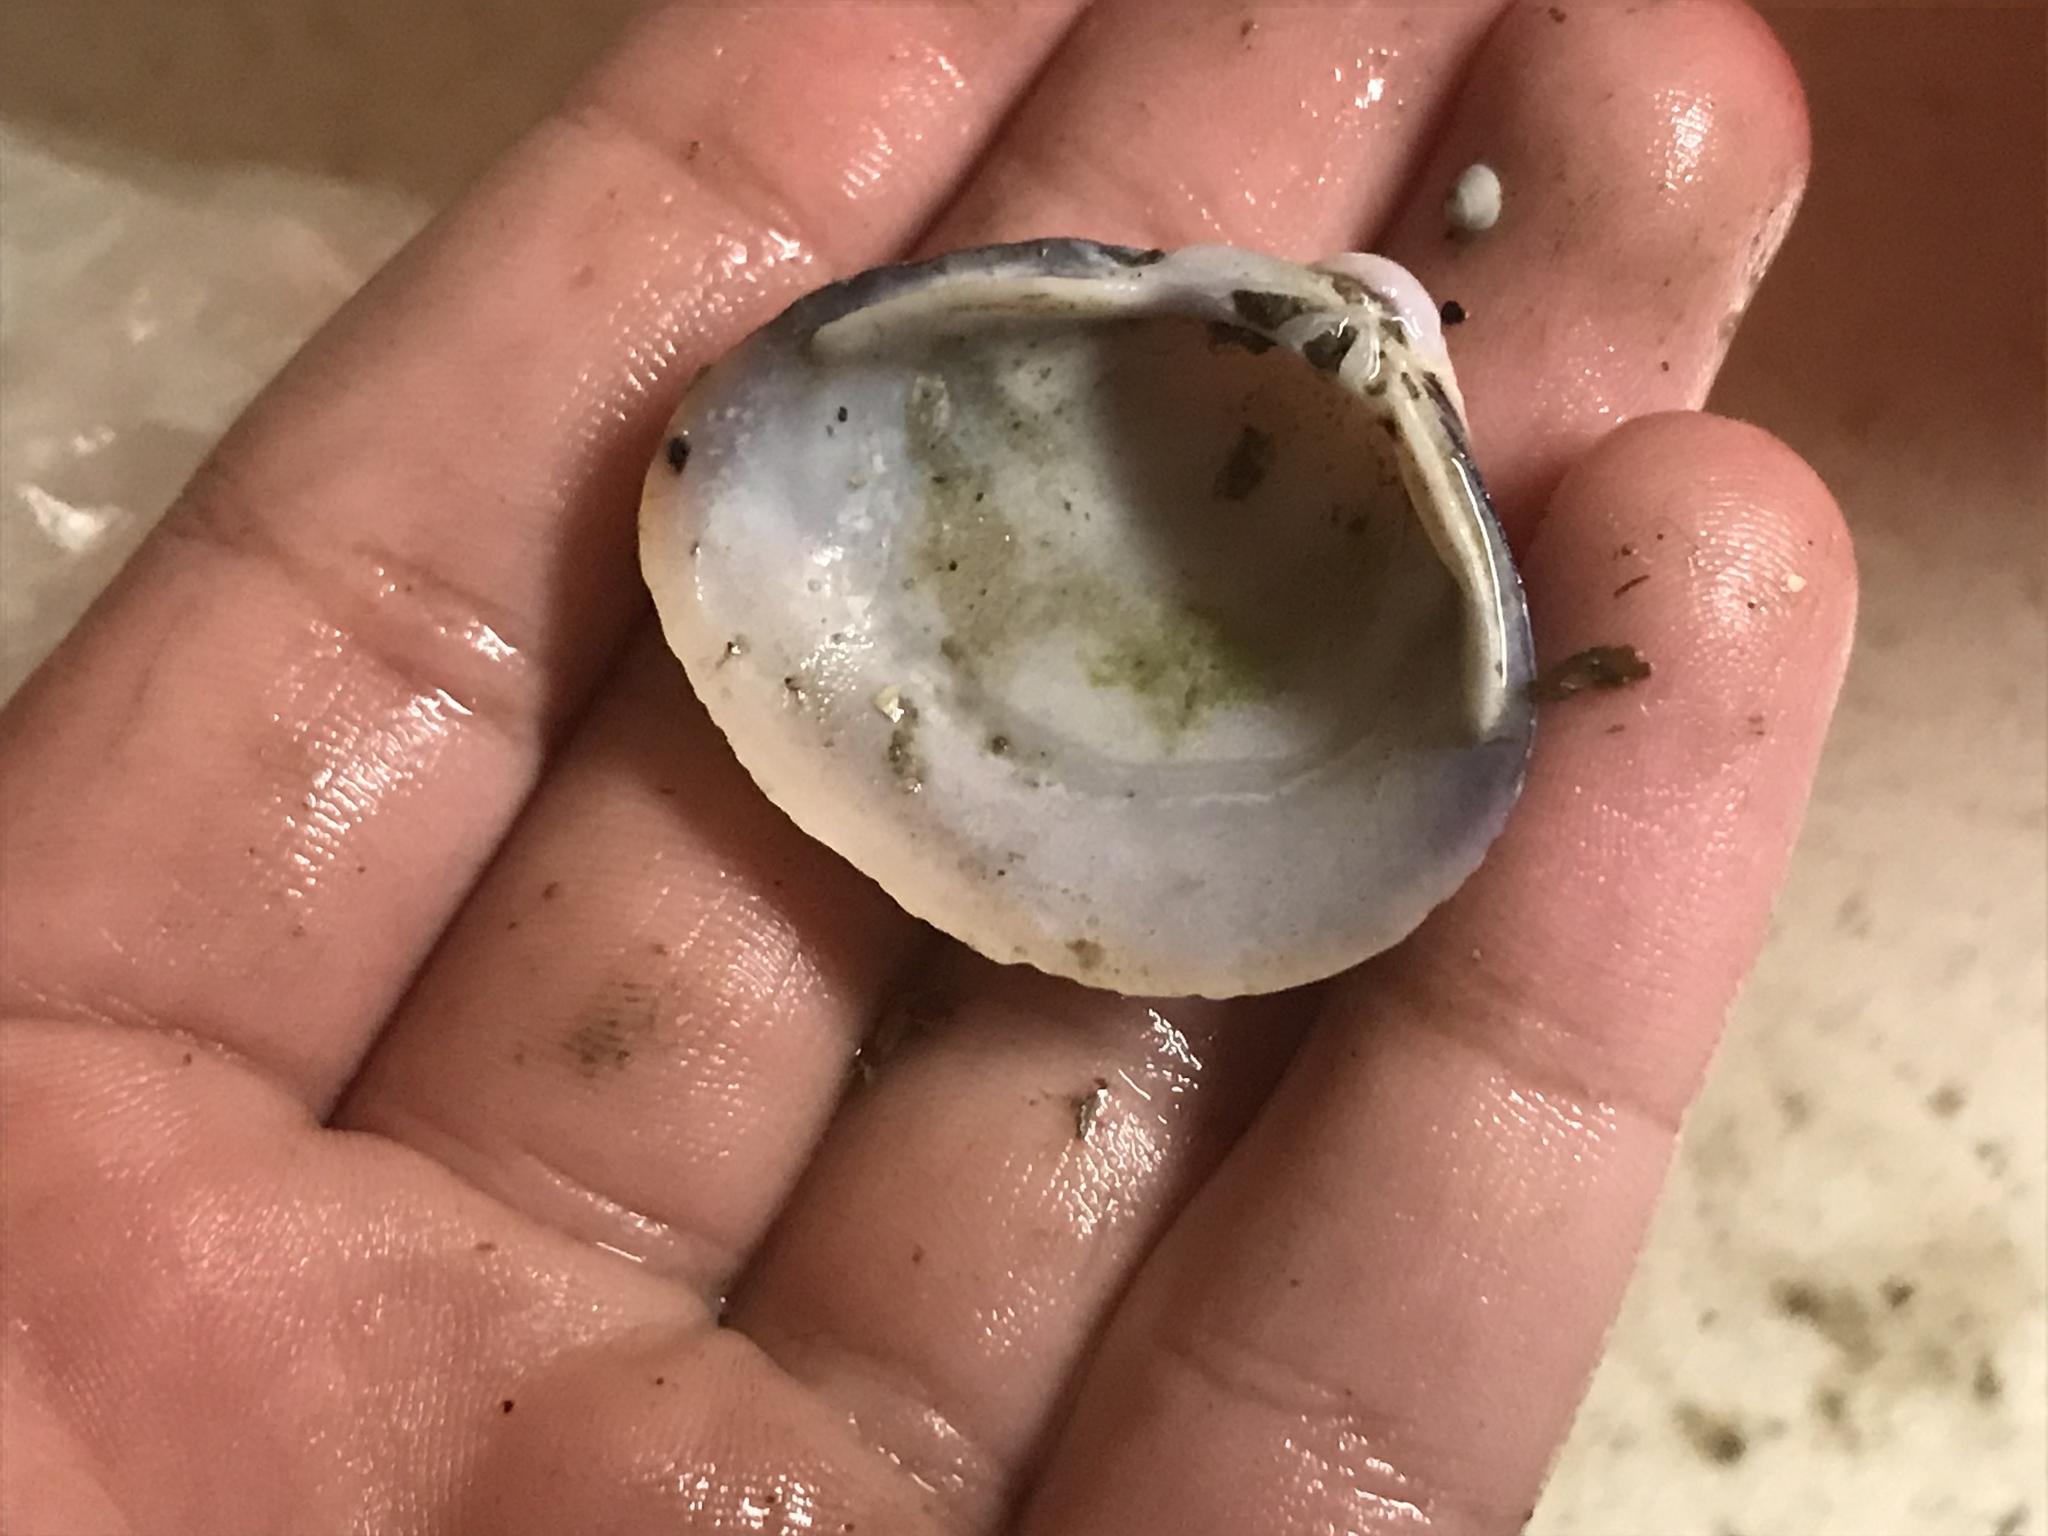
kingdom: Animalia
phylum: Mollusca
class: Bivalvia
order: Venerida
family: Cyrenidae
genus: Corbicula
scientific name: Corbicula fluminea
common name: Asian clam
